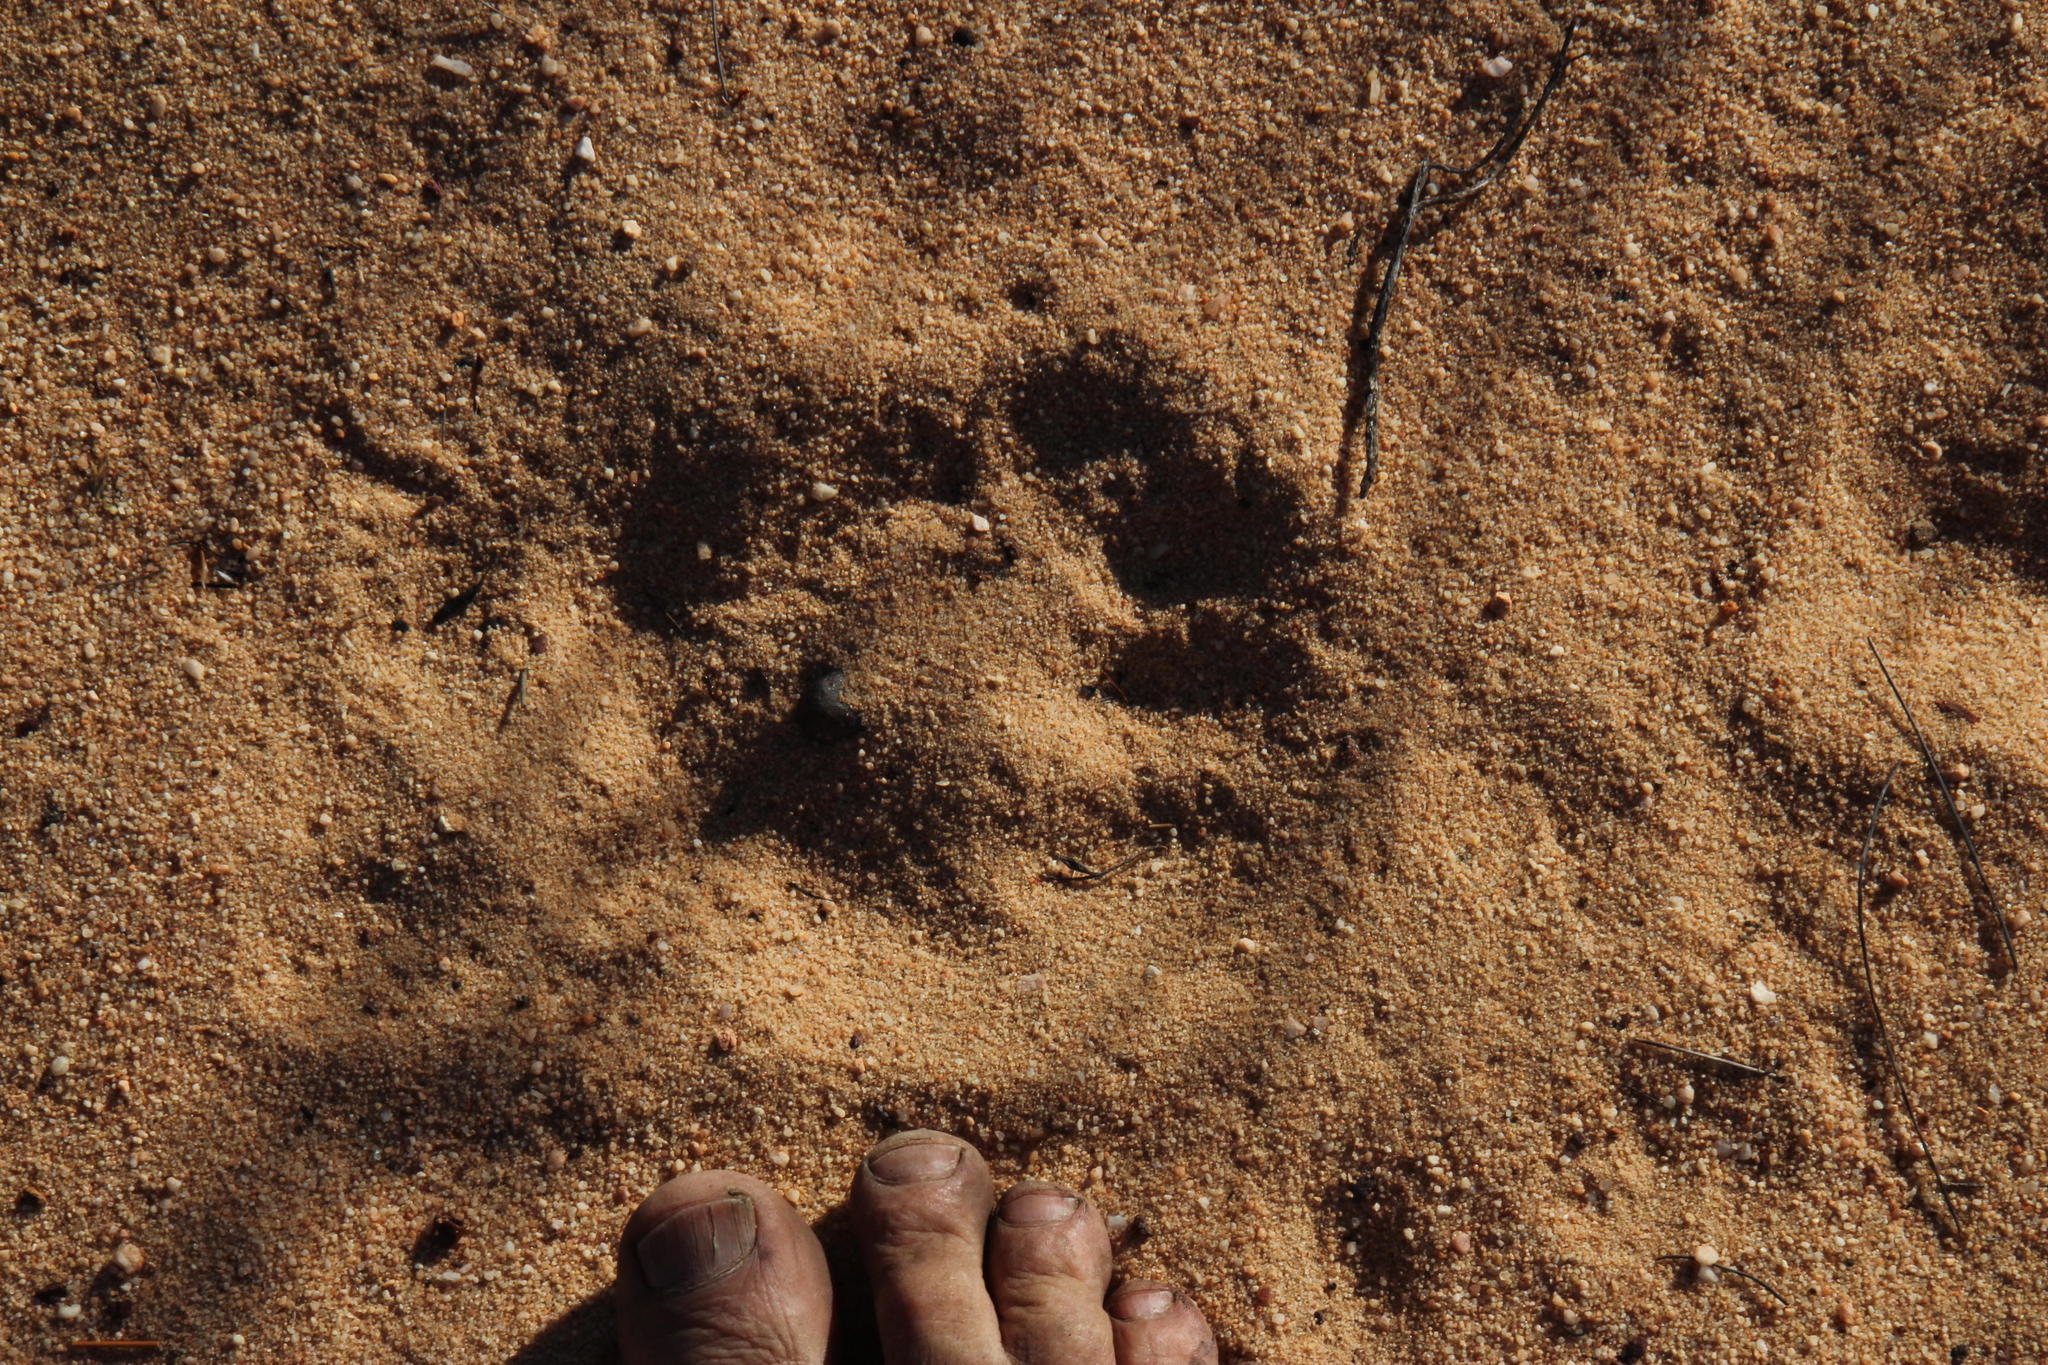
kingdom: Animalia
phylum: Chordata
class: Mammalia
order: Primates
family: Cercopithecidae
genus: Papio
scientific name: Papio ursinus
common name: Chacma baboon
